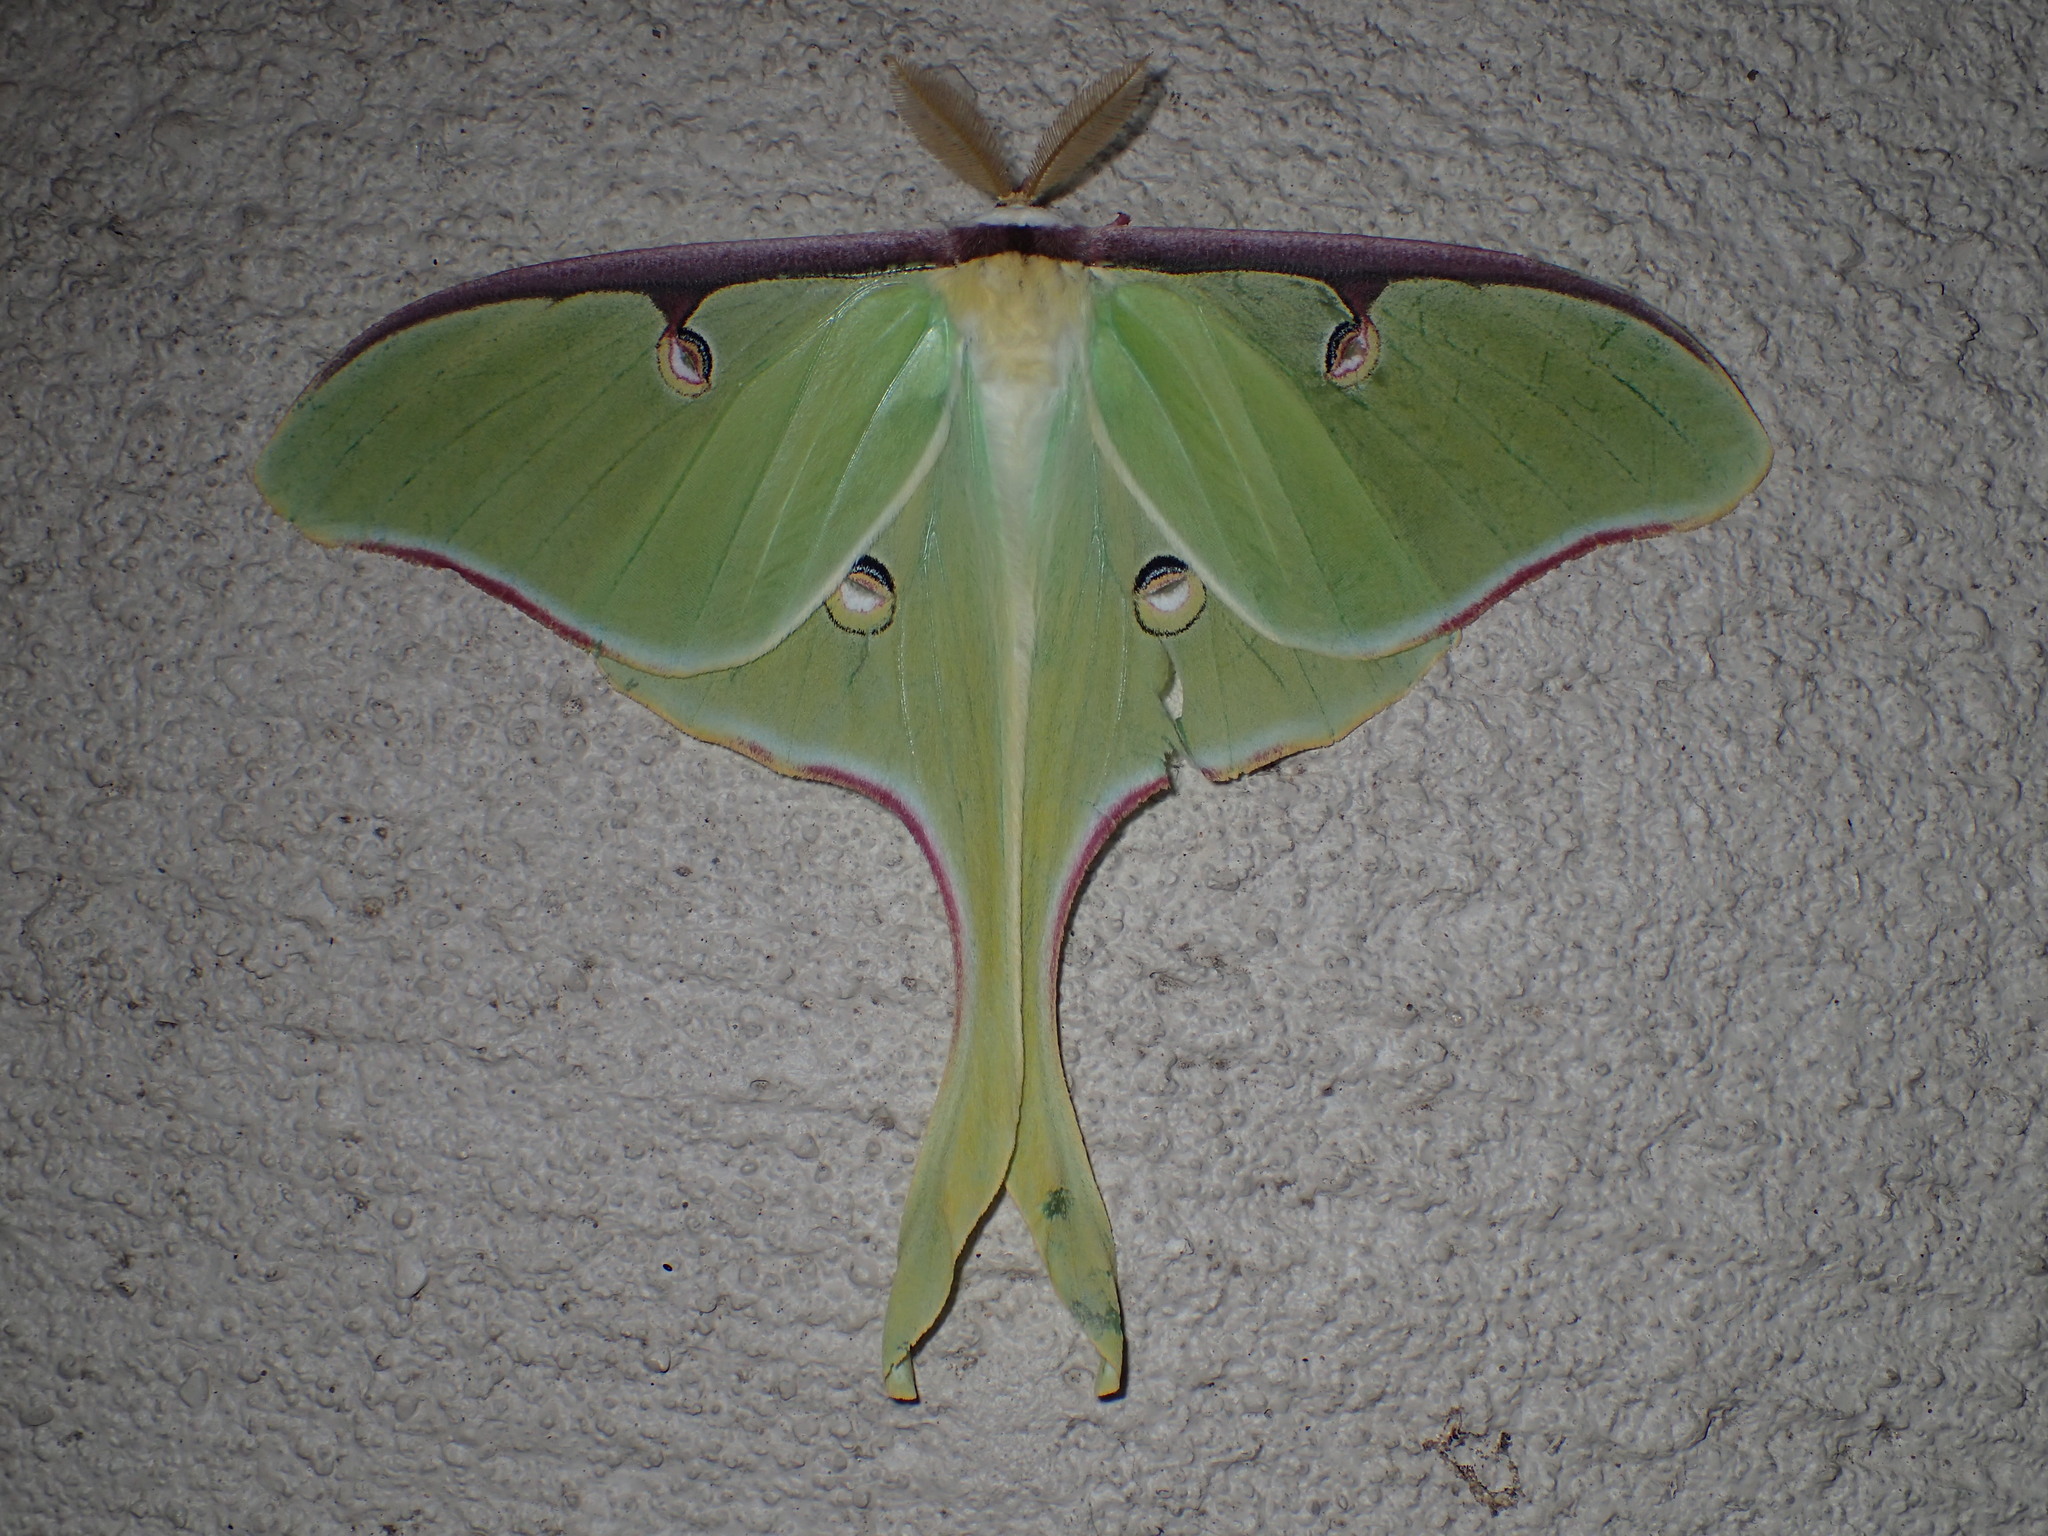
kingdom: Animalia
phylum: Arthropoda
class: Insecta
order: Lepidoptera
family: Saturniidae
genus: Actias
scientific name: Actias luna
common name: Luna moth
